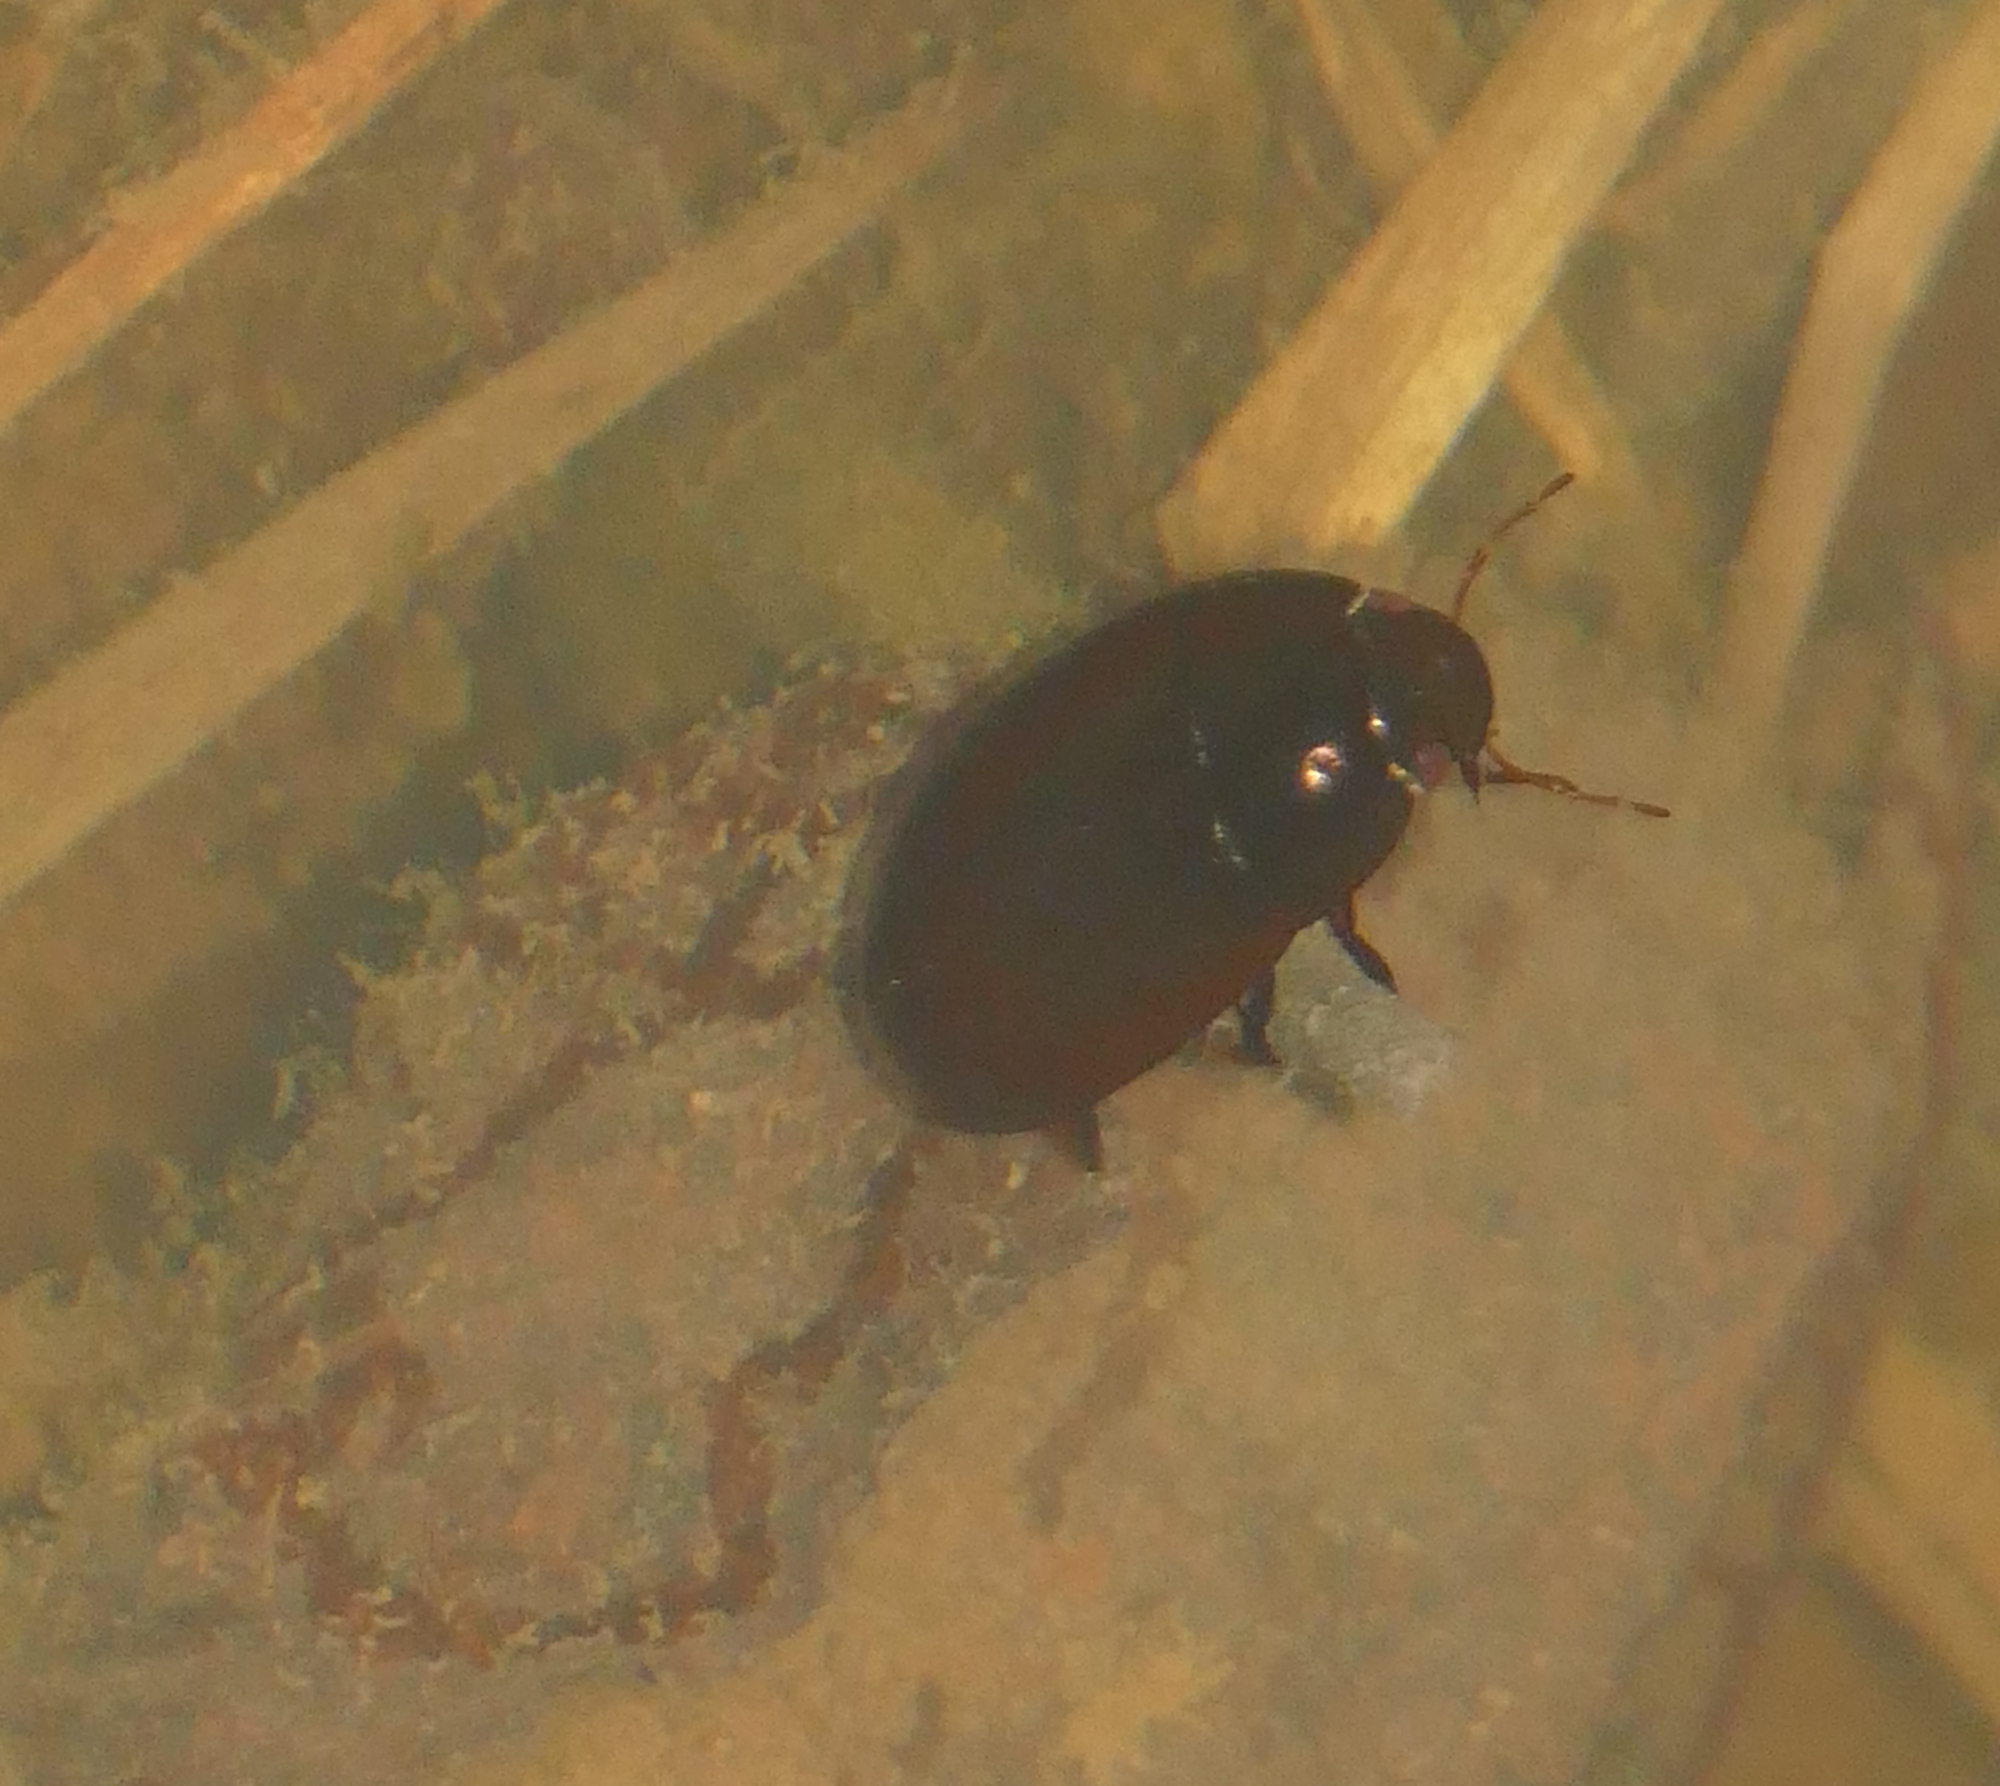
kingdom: Animalia
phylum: Arthropoda
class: Insecta
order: Coleoptera
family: Hydrophilidae
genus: Hydrochara
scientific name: Hydrochara
